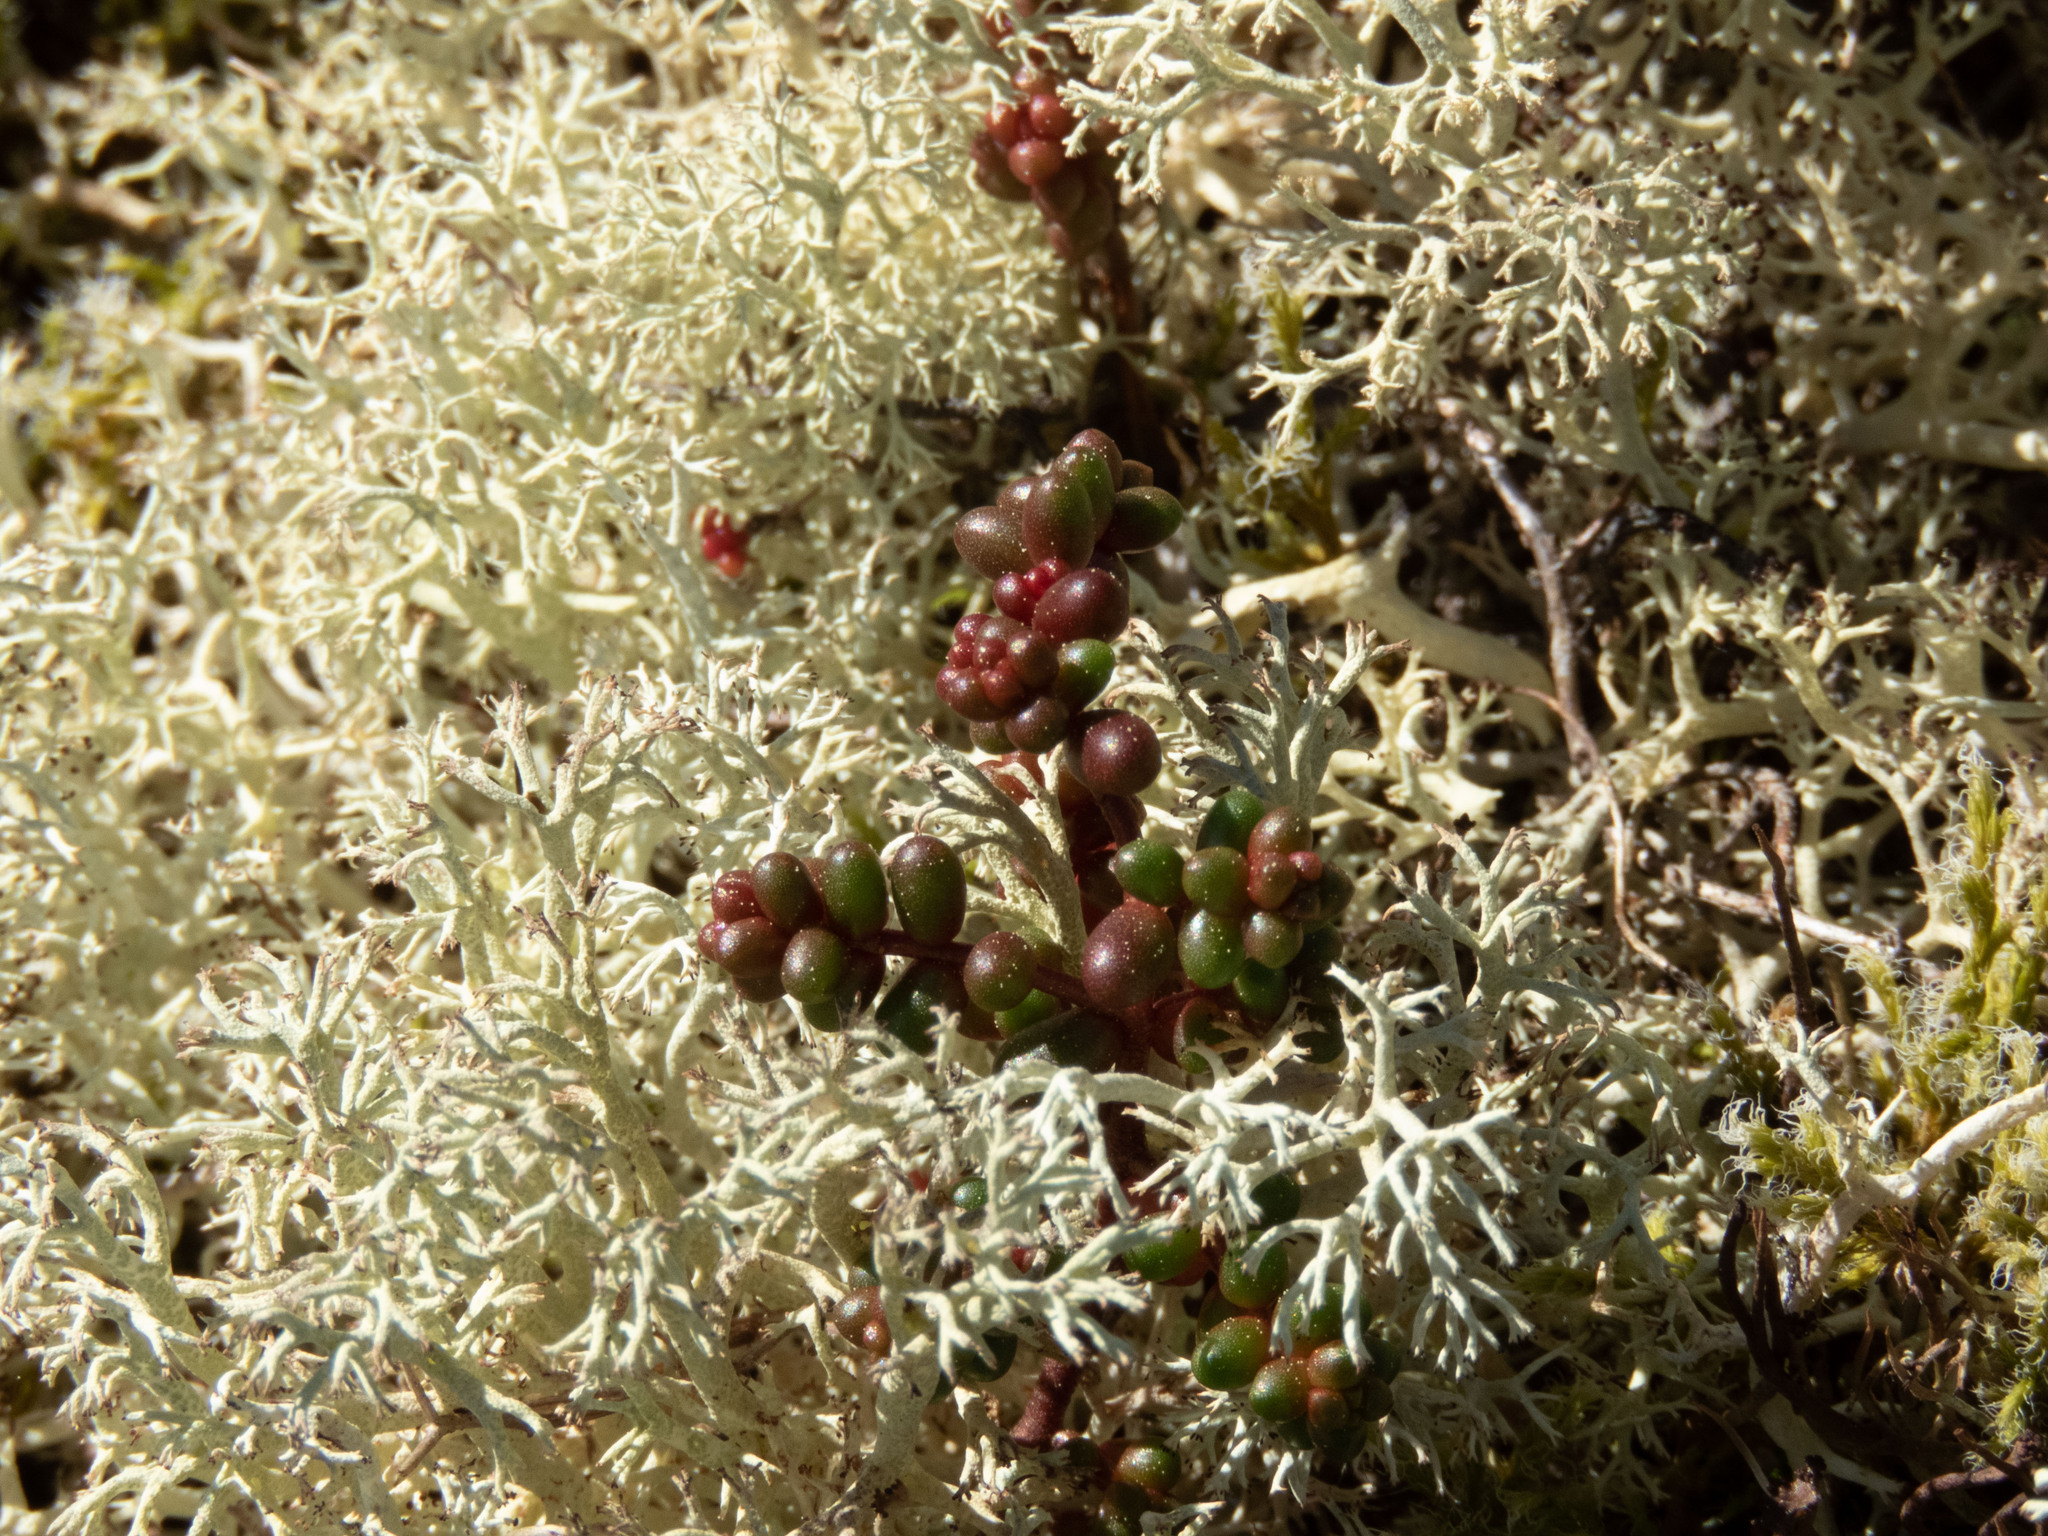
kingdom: Plantae
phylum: Tracheophyta
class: Magnoliopsida
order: Saxifragales
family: Crassulaceae
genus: Sedum
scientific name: Sedum brevifolium
